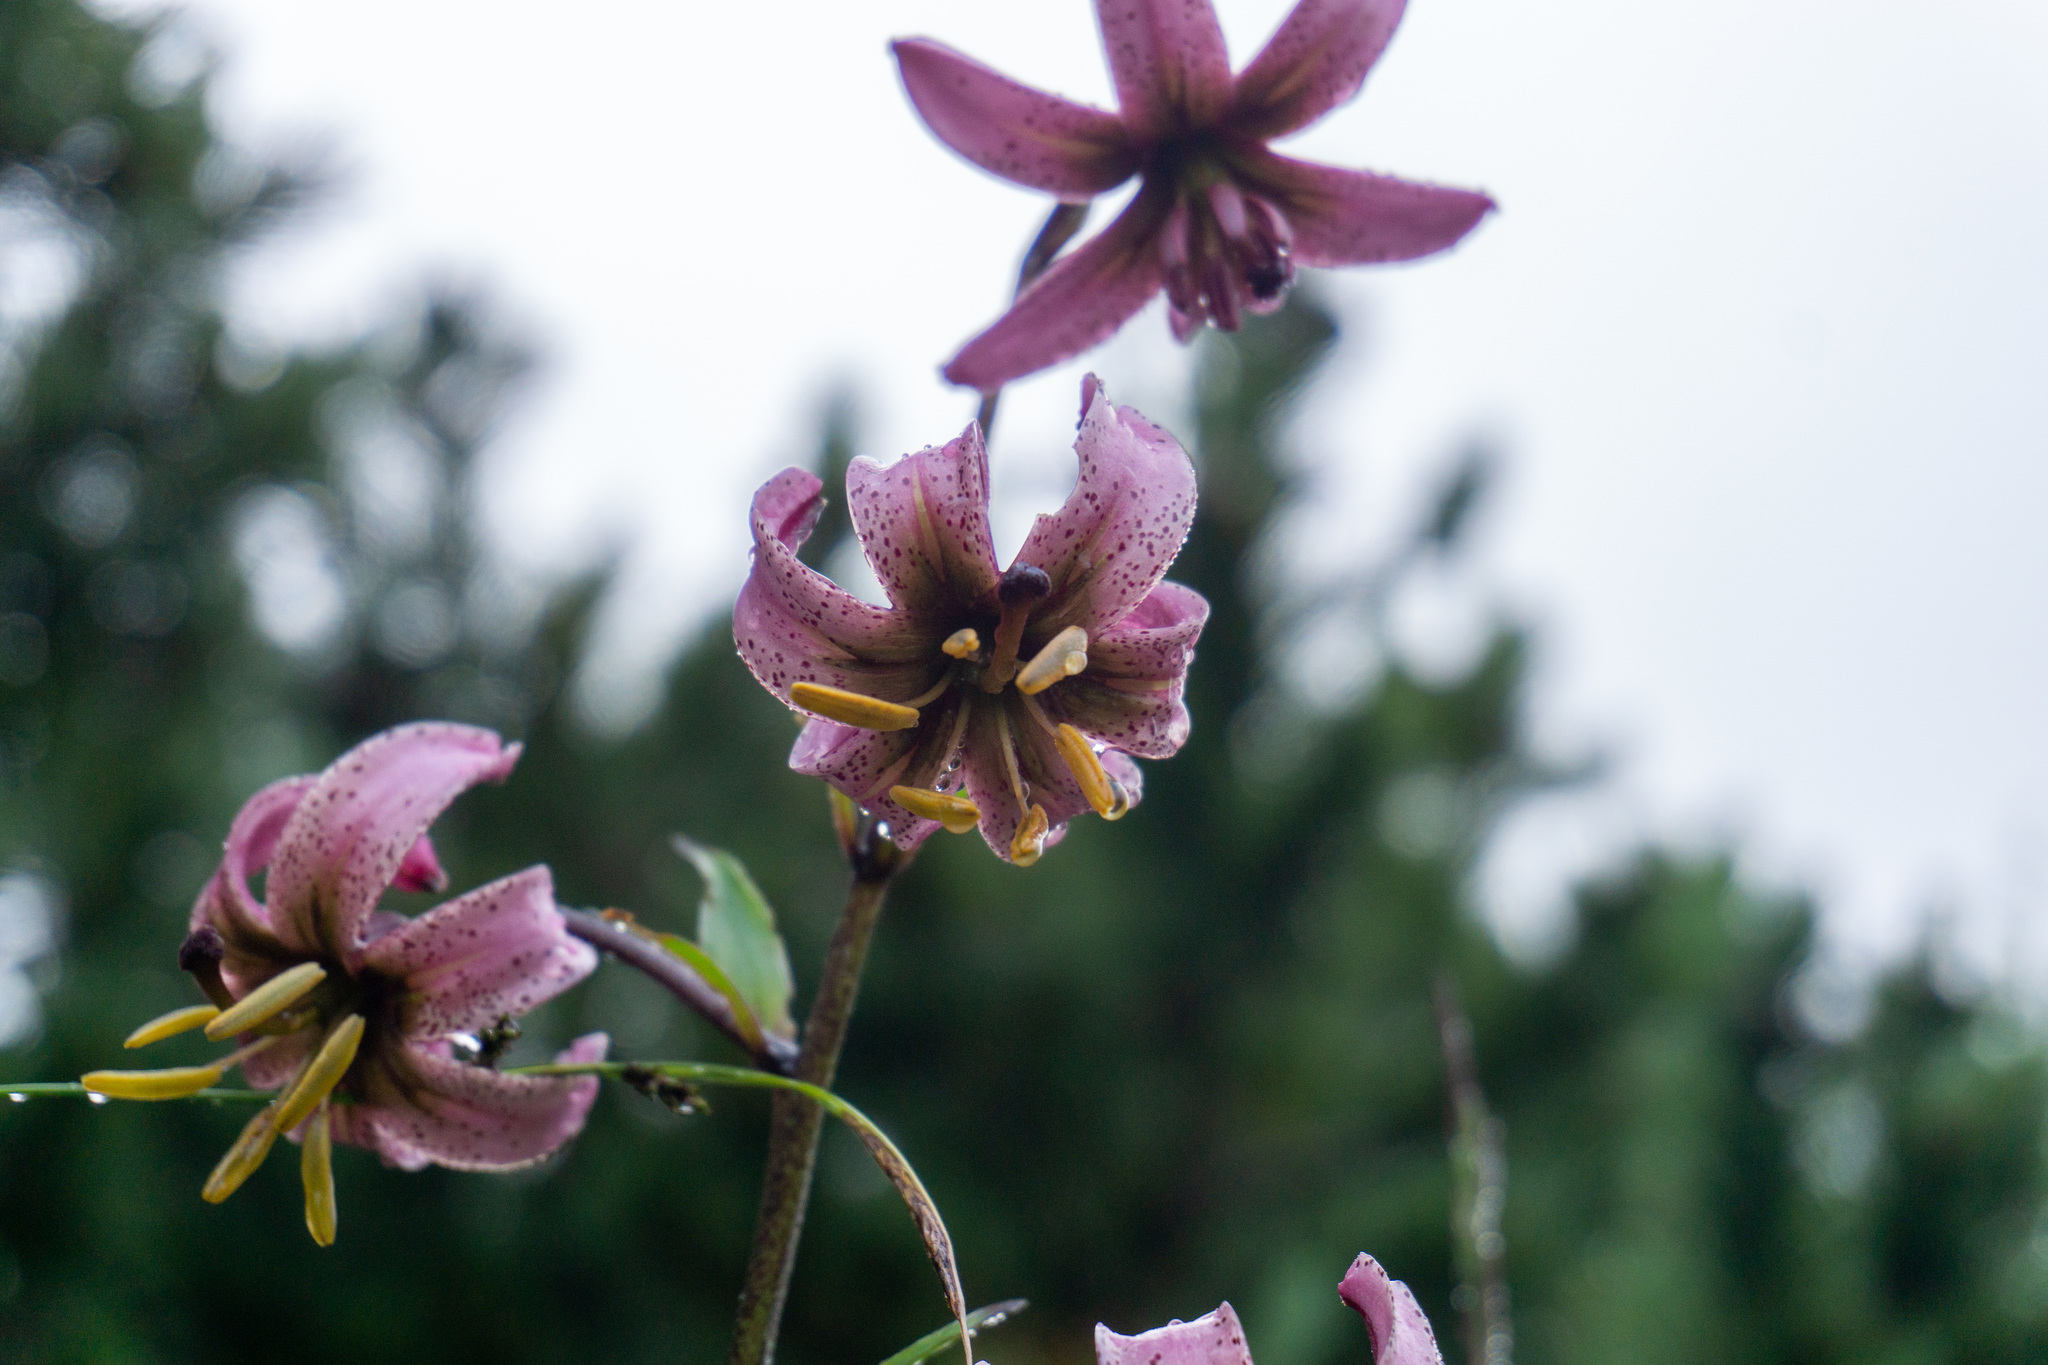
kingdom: Plantae
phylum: Tracheophyta
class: Liliopsida
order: Liliales
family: Liliaceae
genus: Lilium
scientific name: Lilium martagon
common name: Martagon lily
